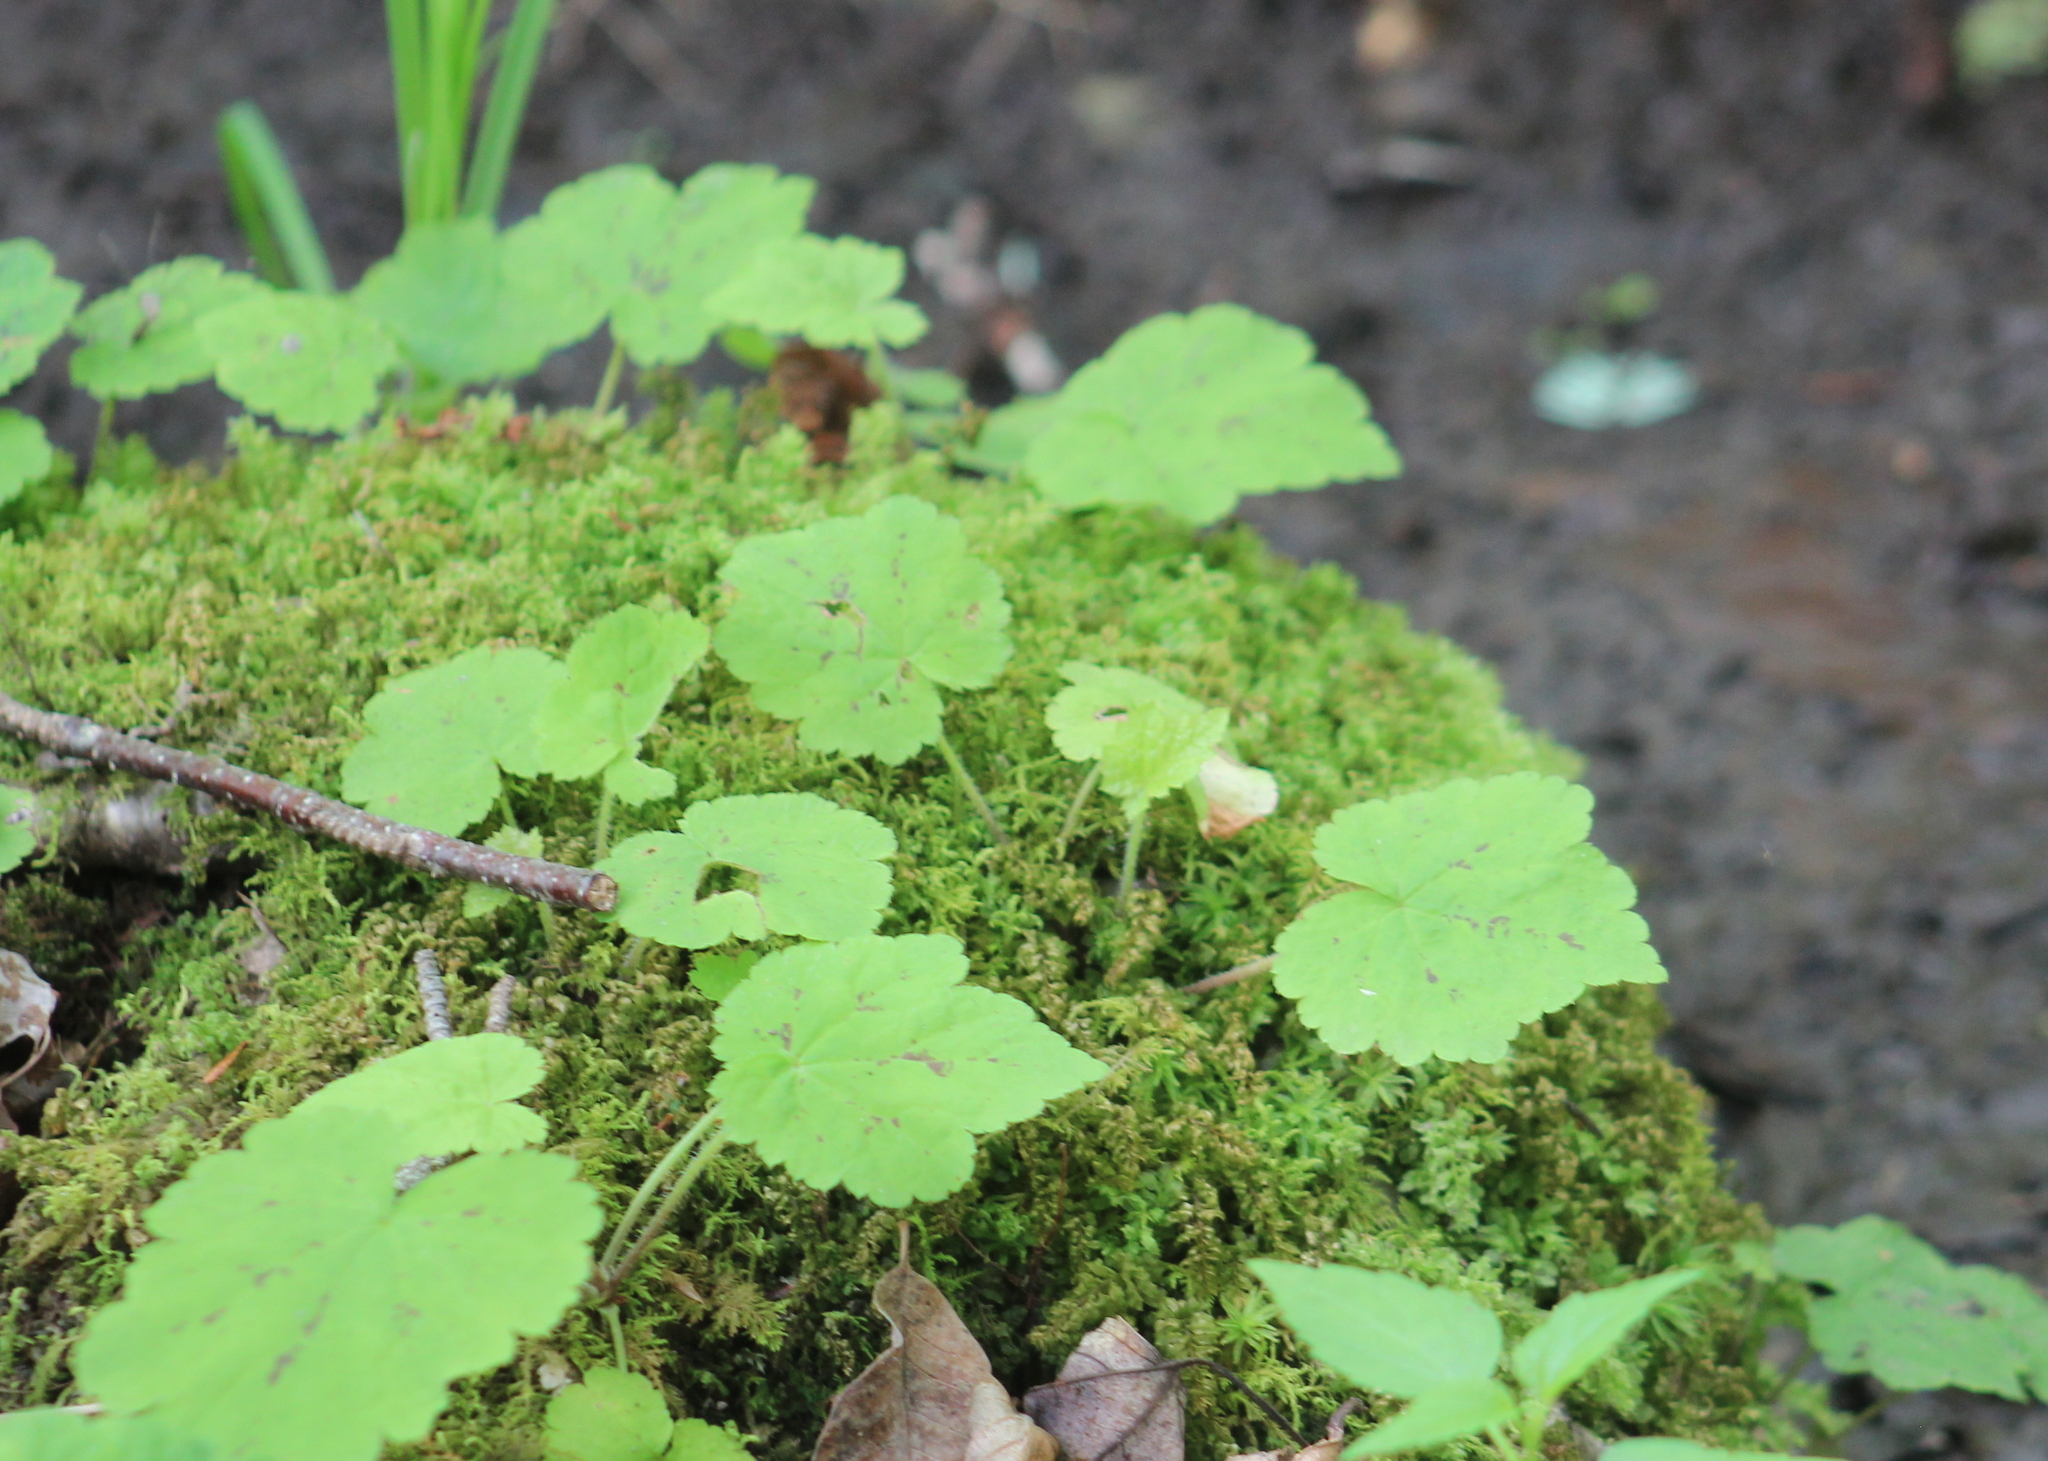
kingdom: Plantae
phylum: Tracheophyta
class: Magnoliopsida
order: Saxifragales
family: Saxifragaceae
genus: Tiarella
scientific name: Tiarella stolonifera
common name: Stoloniferous foamflower
